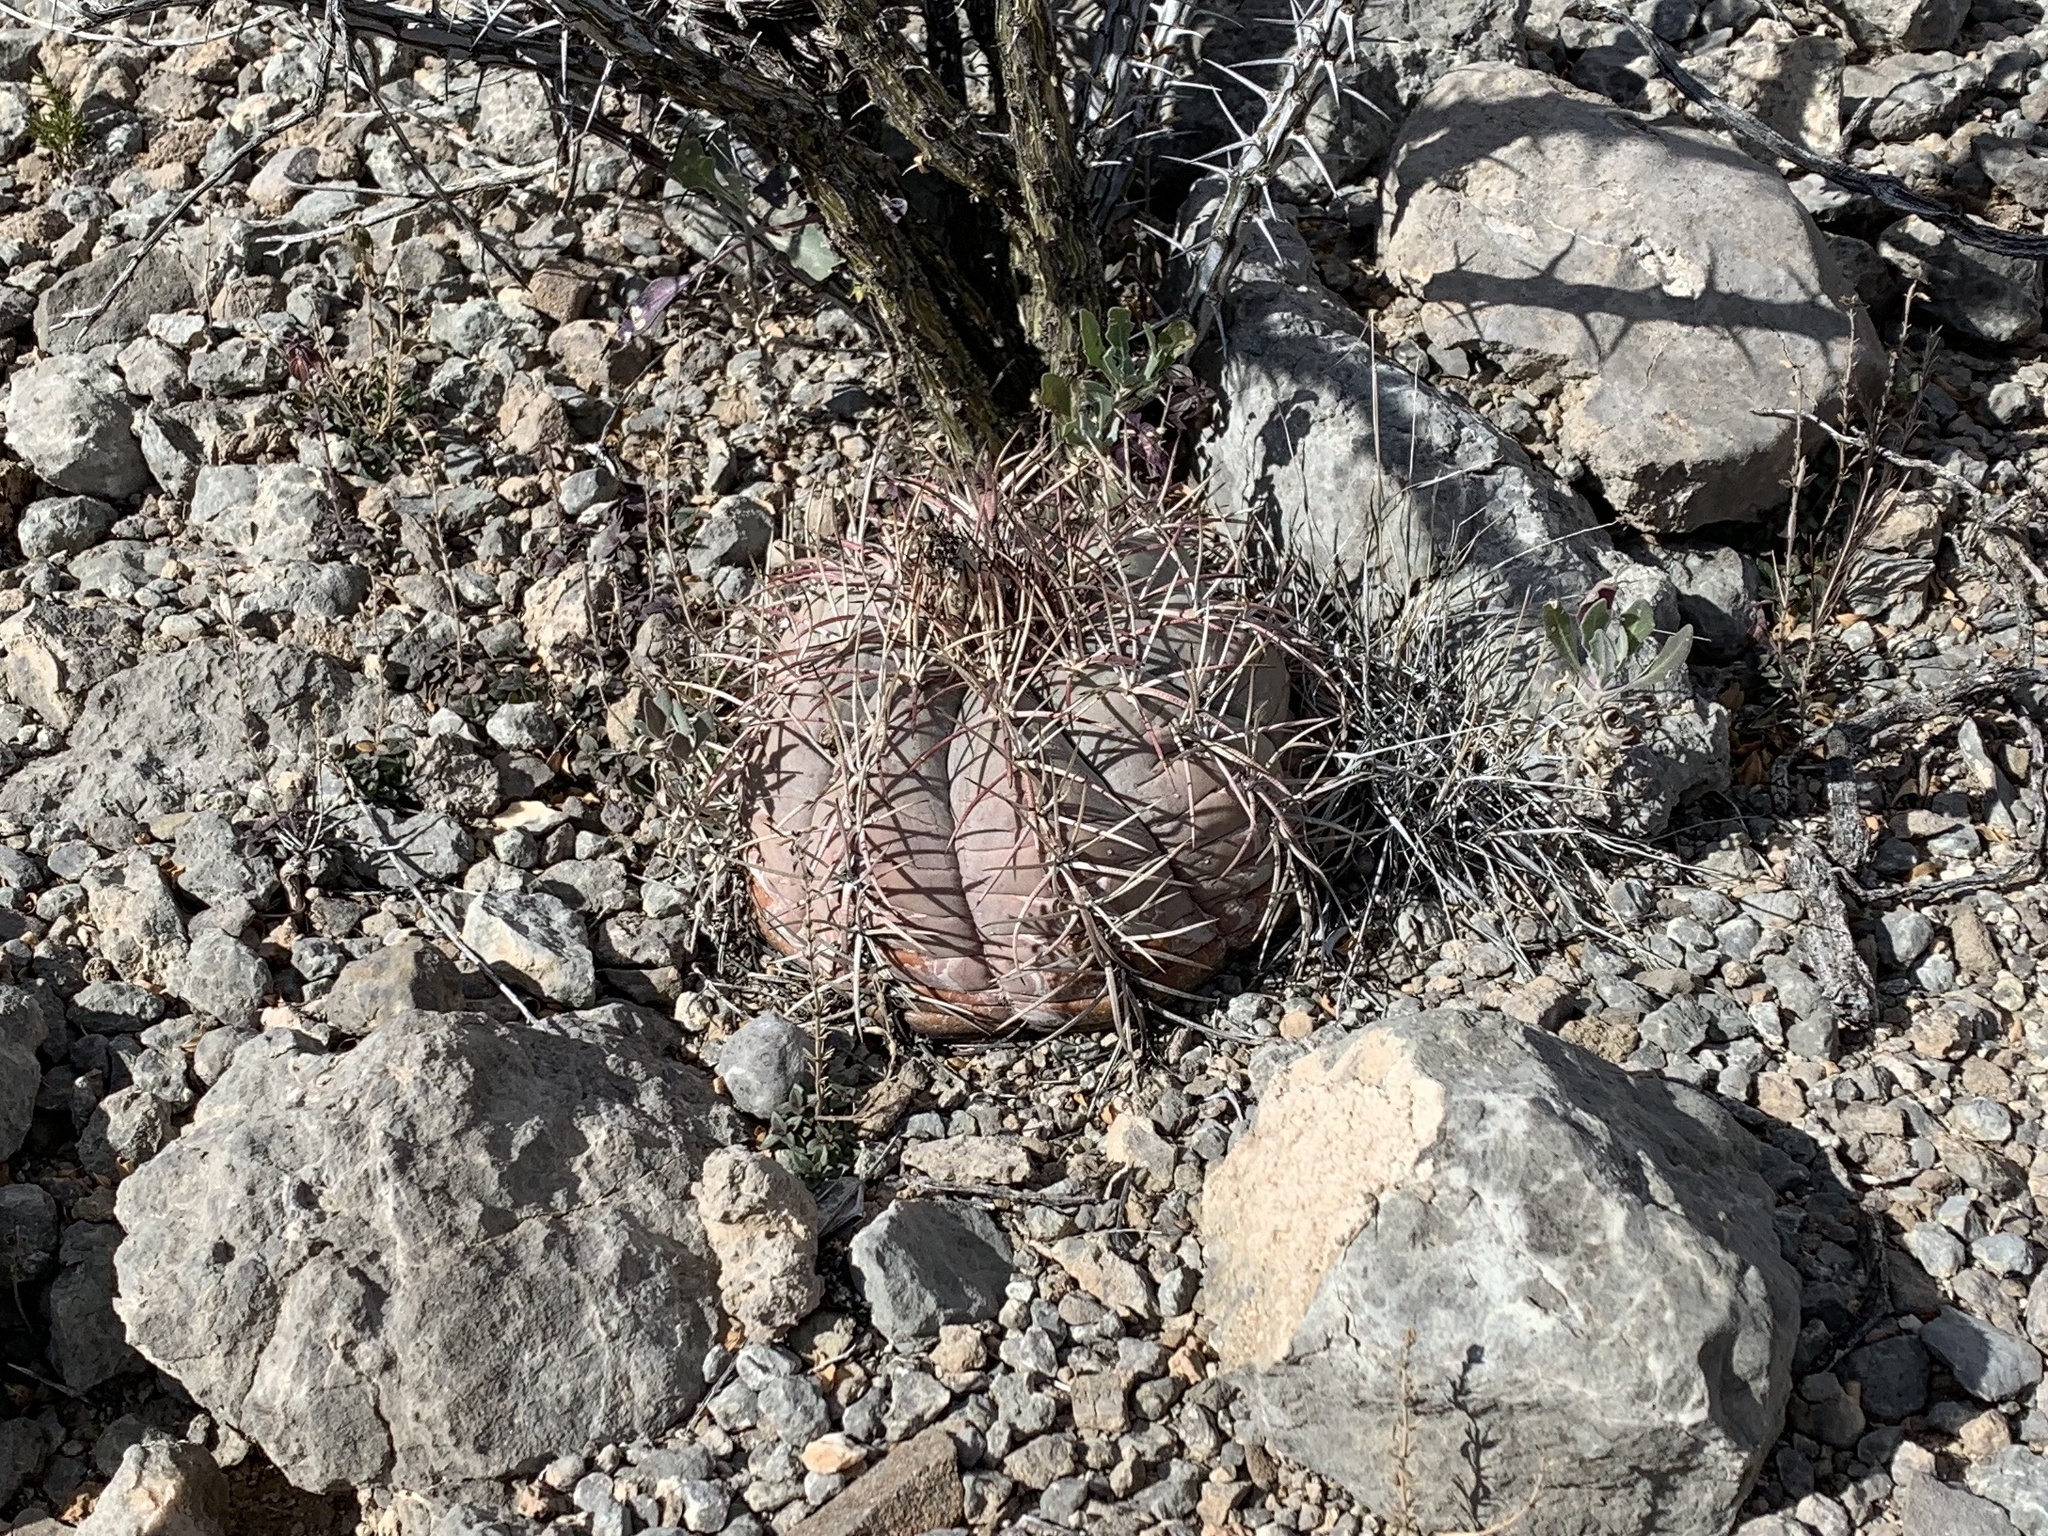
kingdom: Plantae
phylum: Tracheophyta
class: Magnoliopsida
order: Caryophyllales
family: Cactaceae
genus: Echinocactus
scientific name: Echinocactus horizonthalonius
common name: Devilshead
